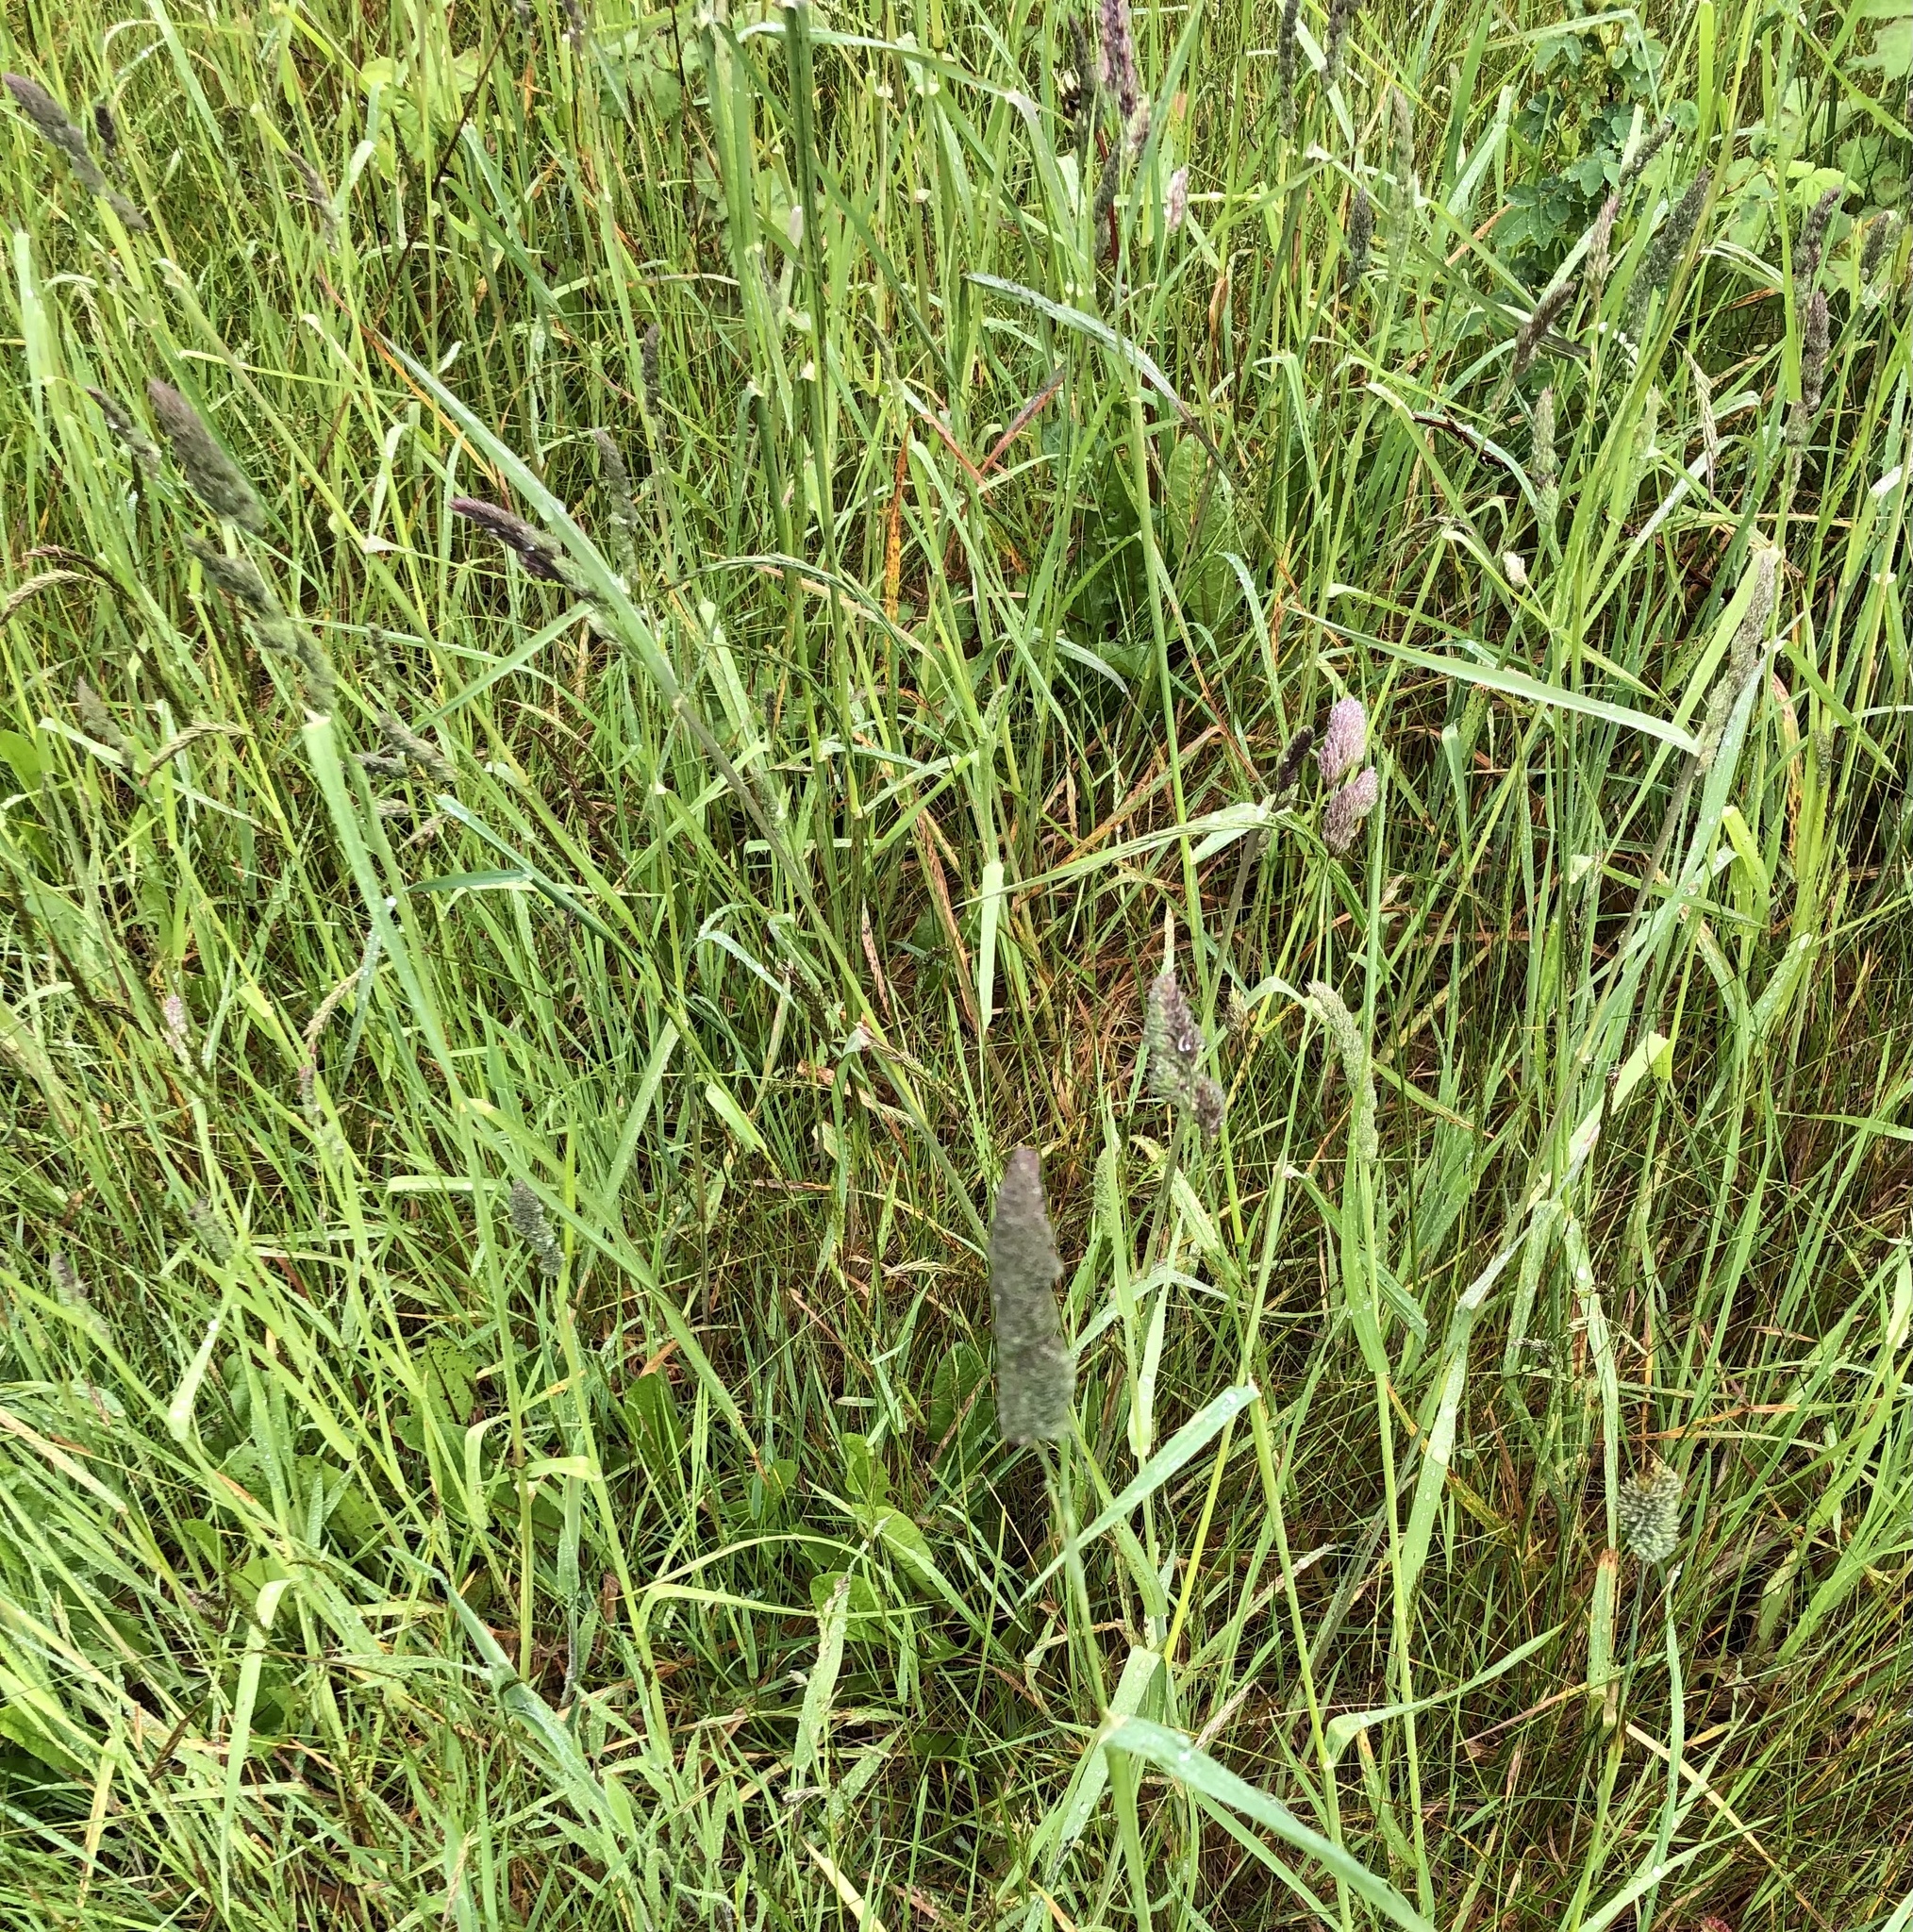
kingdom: Plantae
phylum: Tracheophyta
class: Liliopsida
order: Poales
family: Poaceae
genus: Dactylis
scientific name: Dactylis glomerata
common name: Orchardgrass
